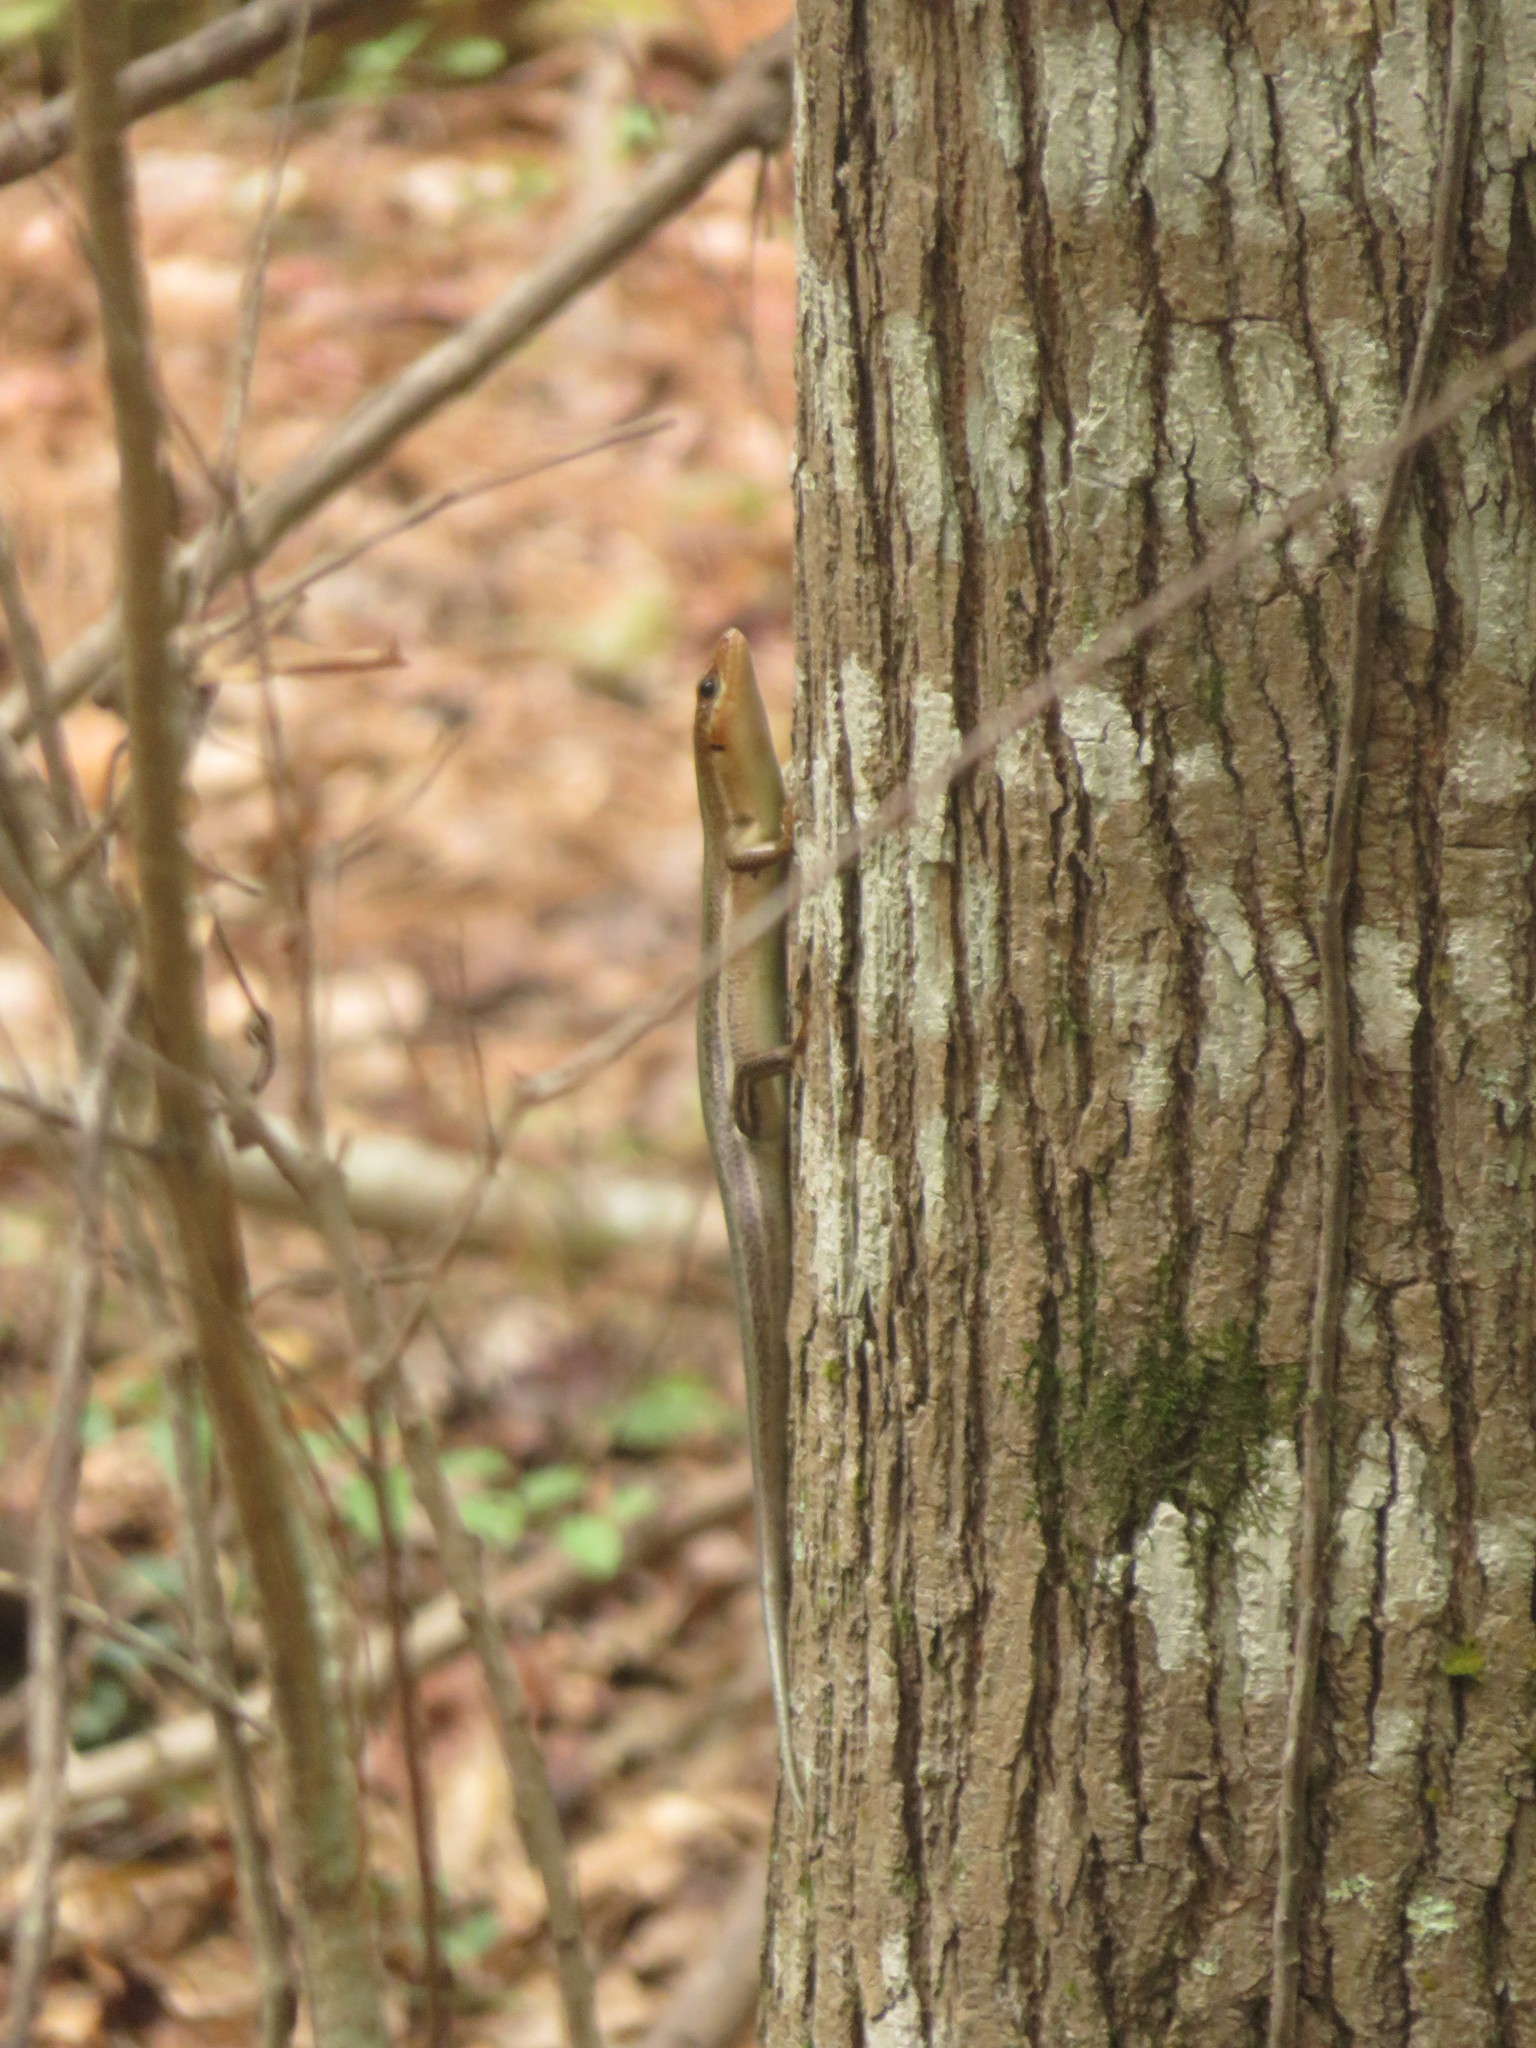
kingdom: Animalia
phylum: Chordata
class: Squamata
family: Scincidae
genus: Plestiodon
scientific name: Plestiodon laticeps
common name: Broadhead skink
